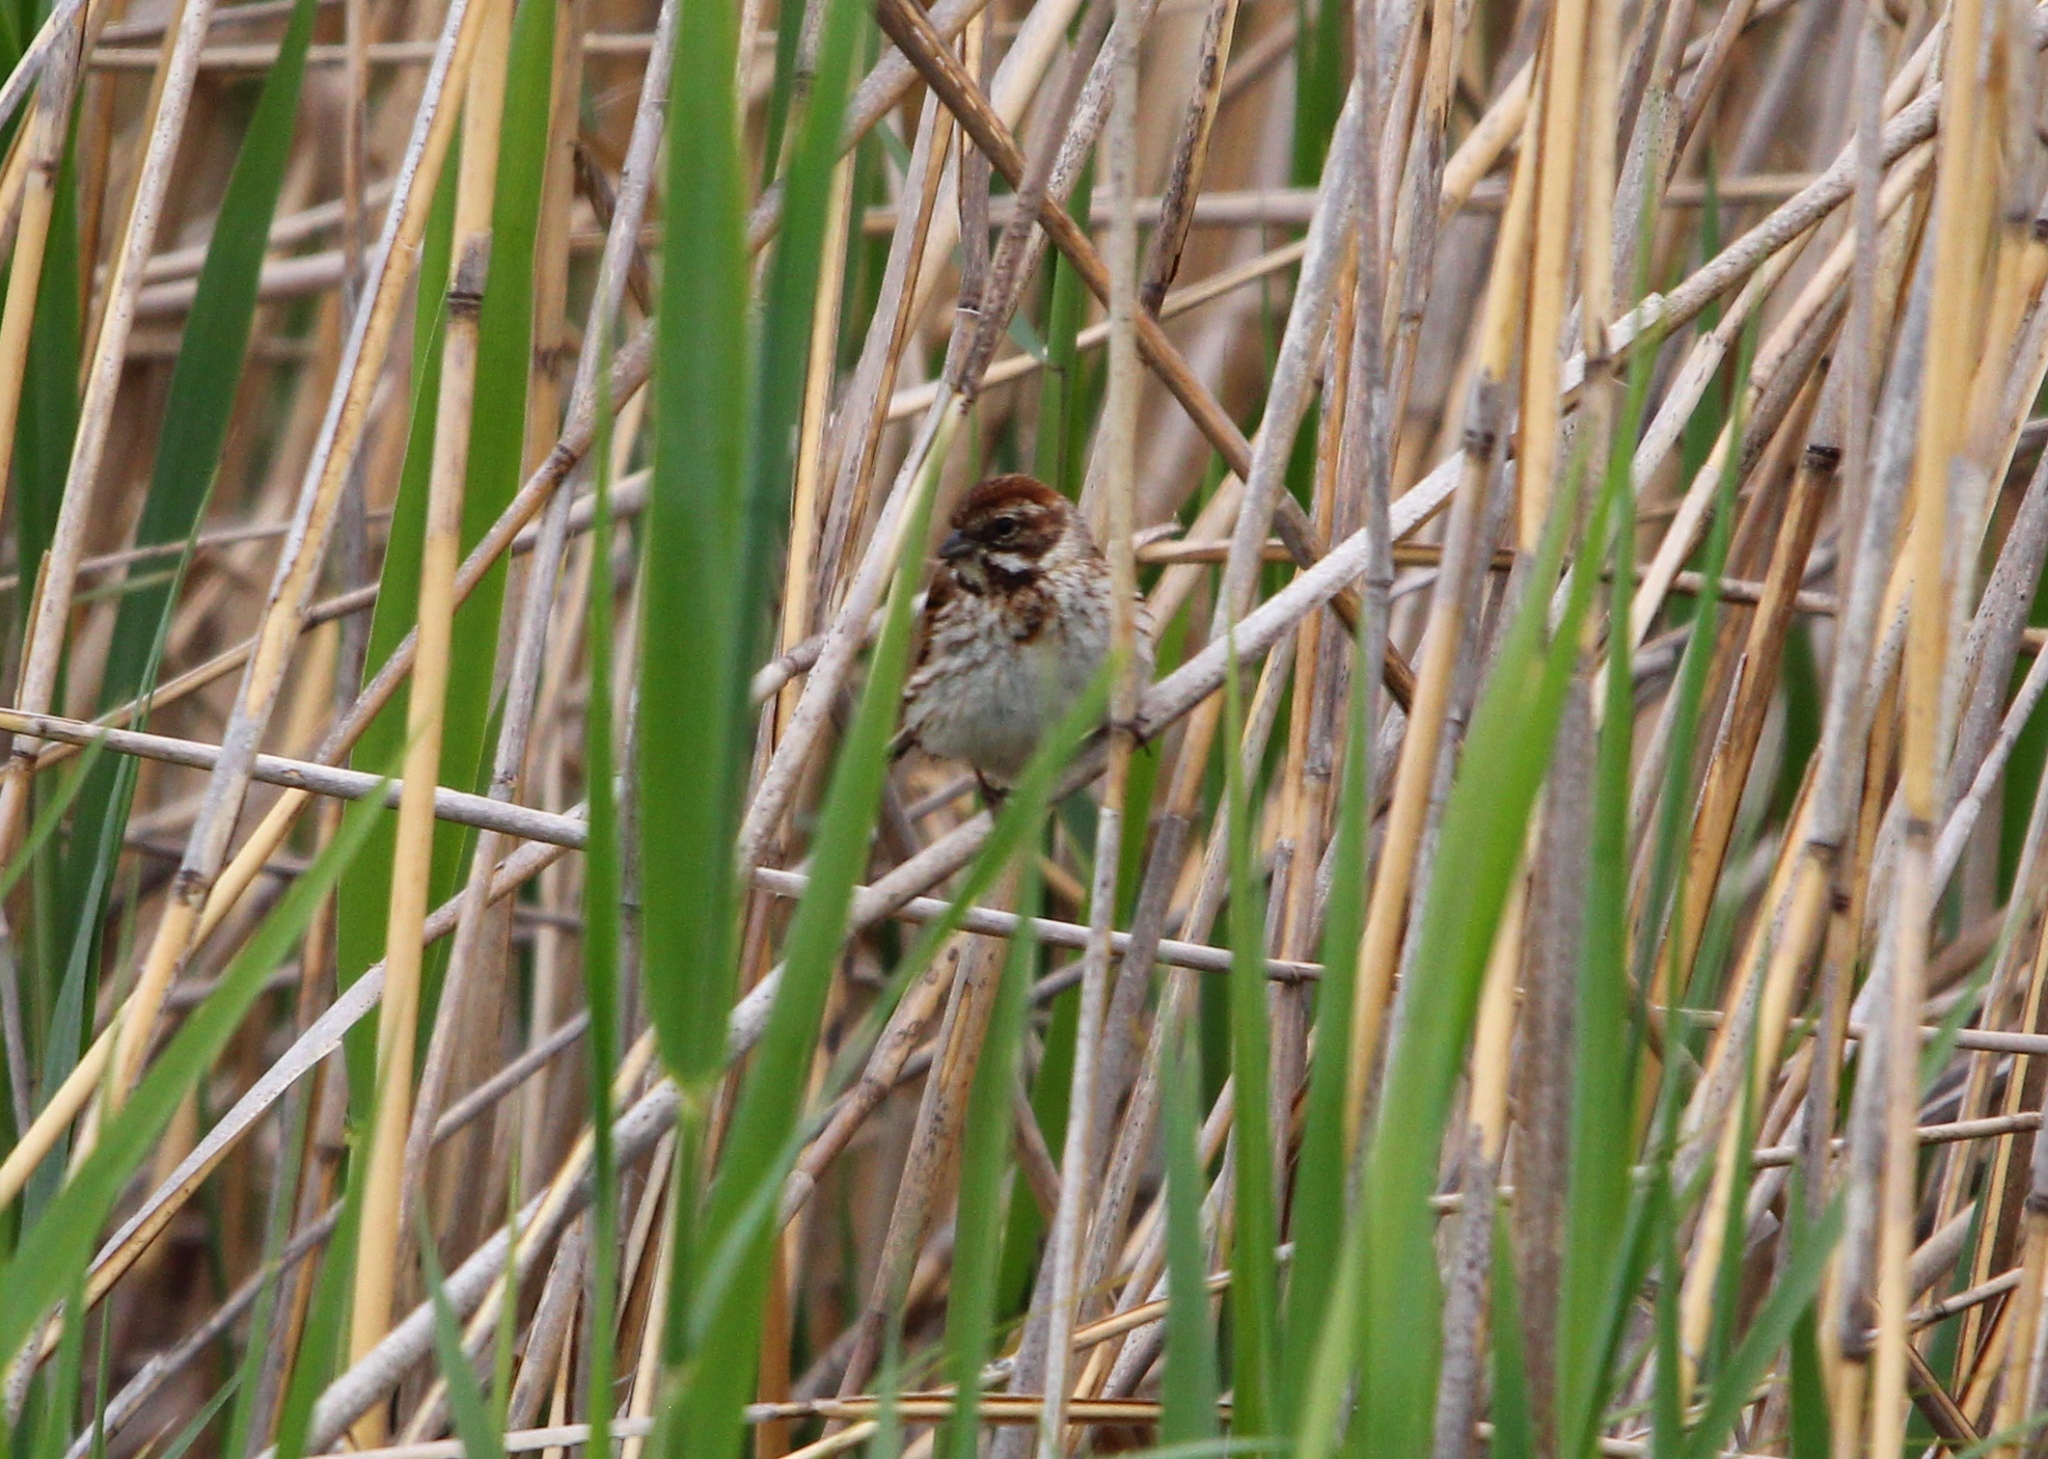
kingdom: Animalia
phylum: Chordata
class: Aves
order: Passeriformes
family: Emberizidae
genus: Emberiza
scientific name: Emberiza schoeniclus
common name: Reed bunting
